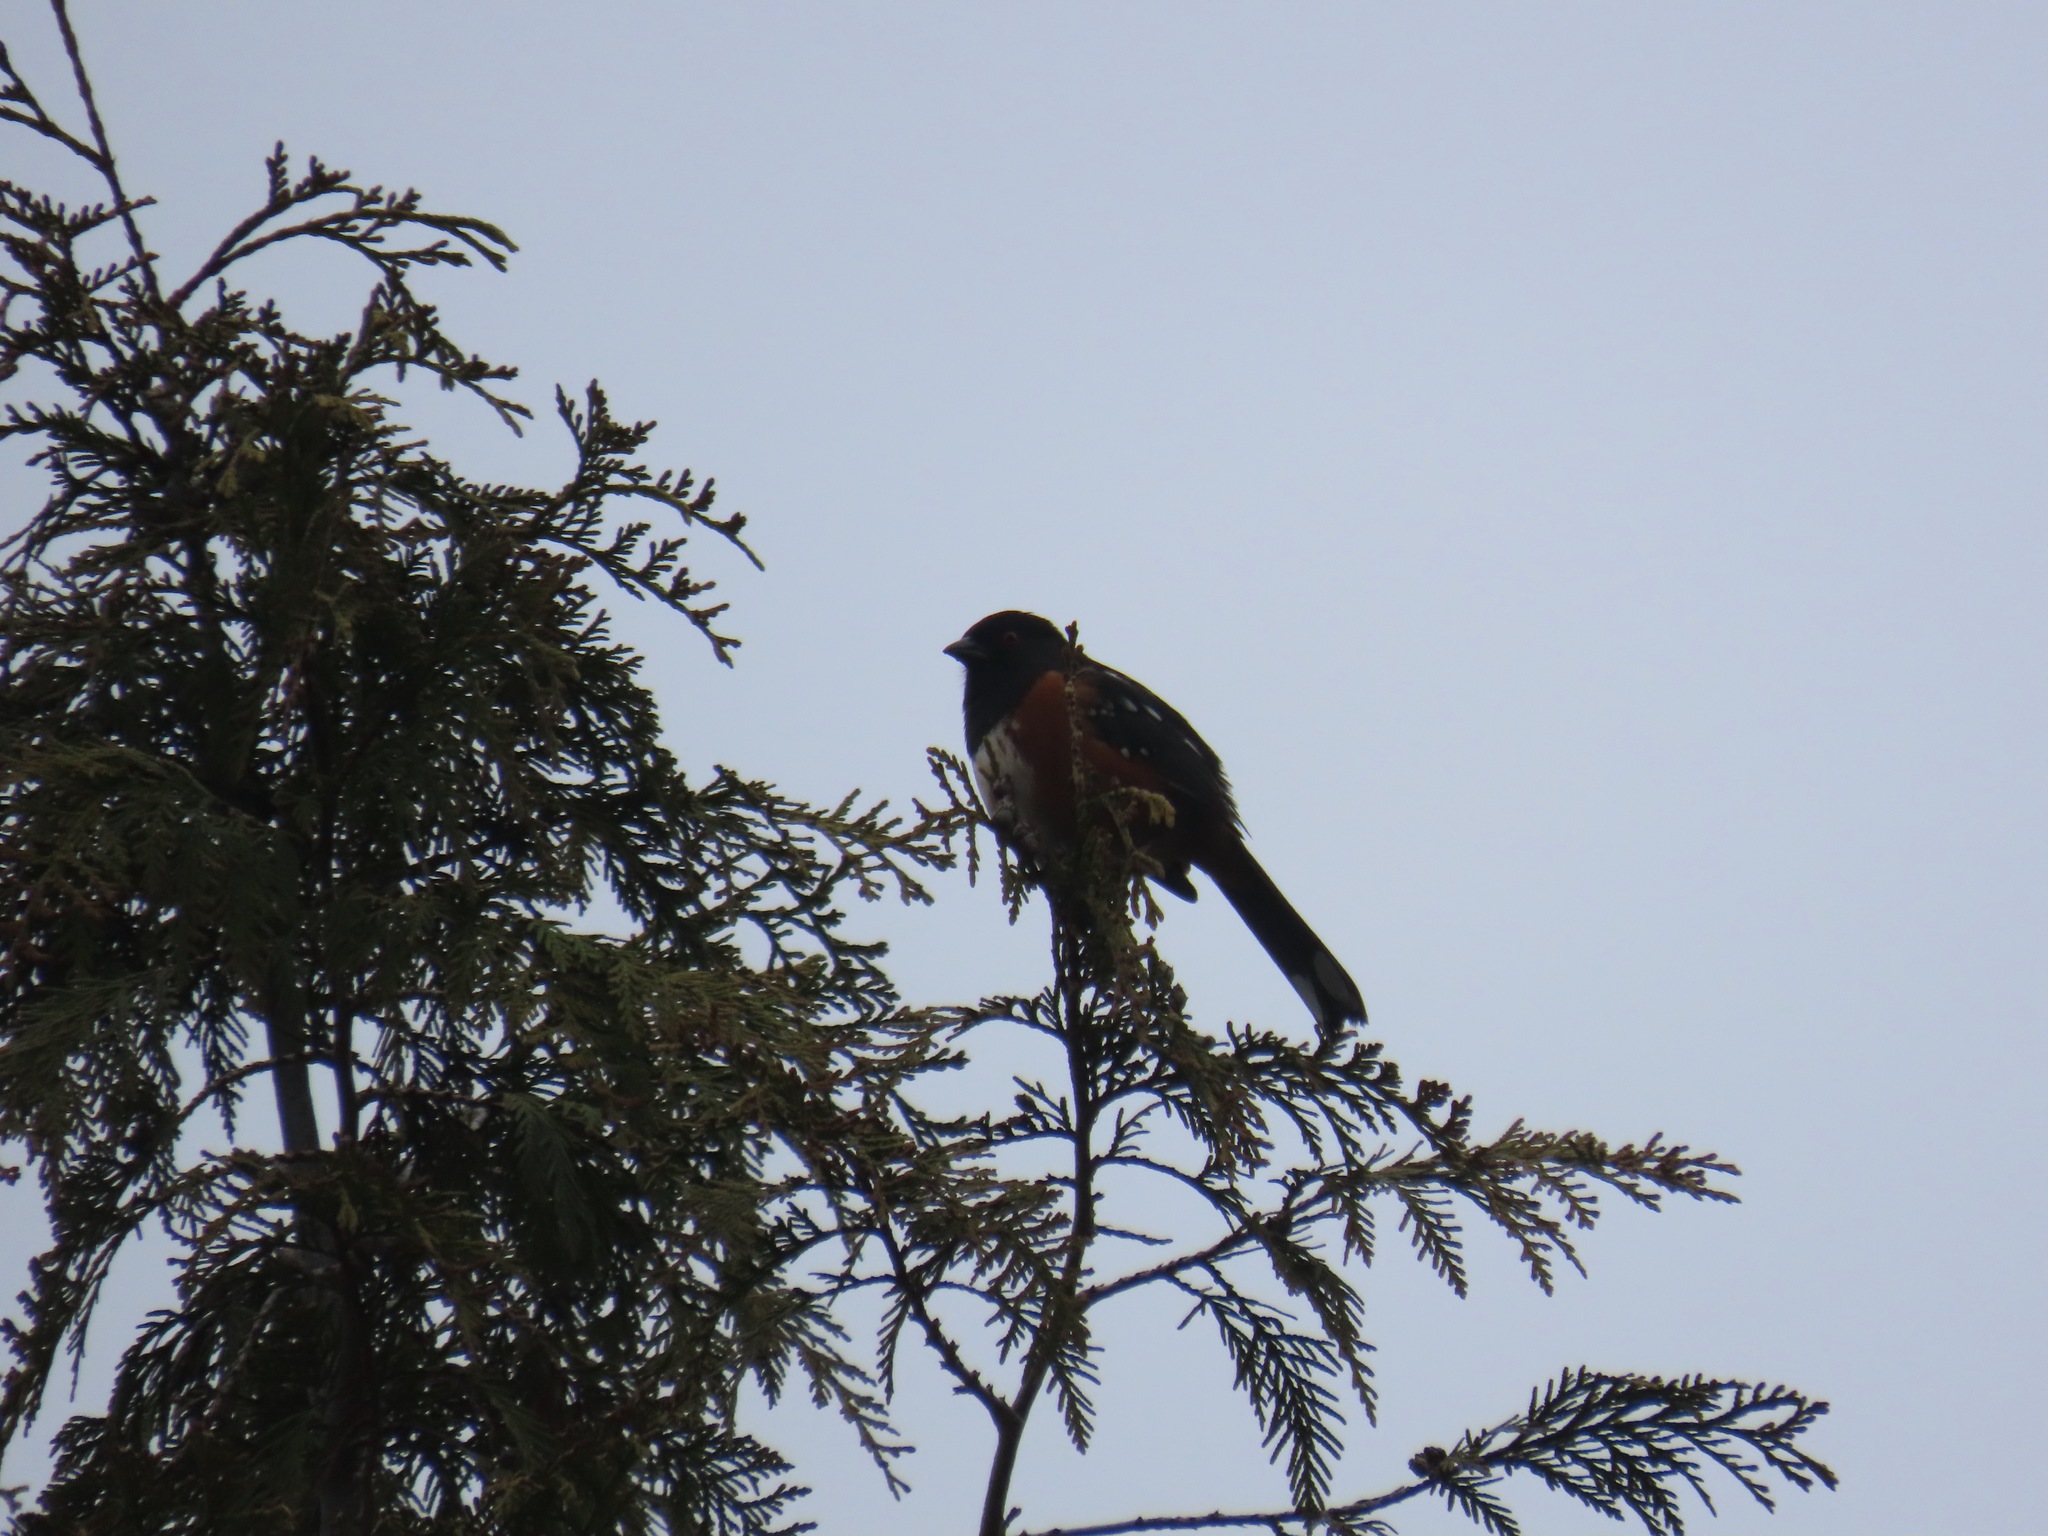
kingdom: Animalia
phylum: Chordata
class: Aves
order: Passeriformes
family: Passerellidae
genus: Pipilo
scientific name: Pipilo maculatus
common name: Spotted towhee
